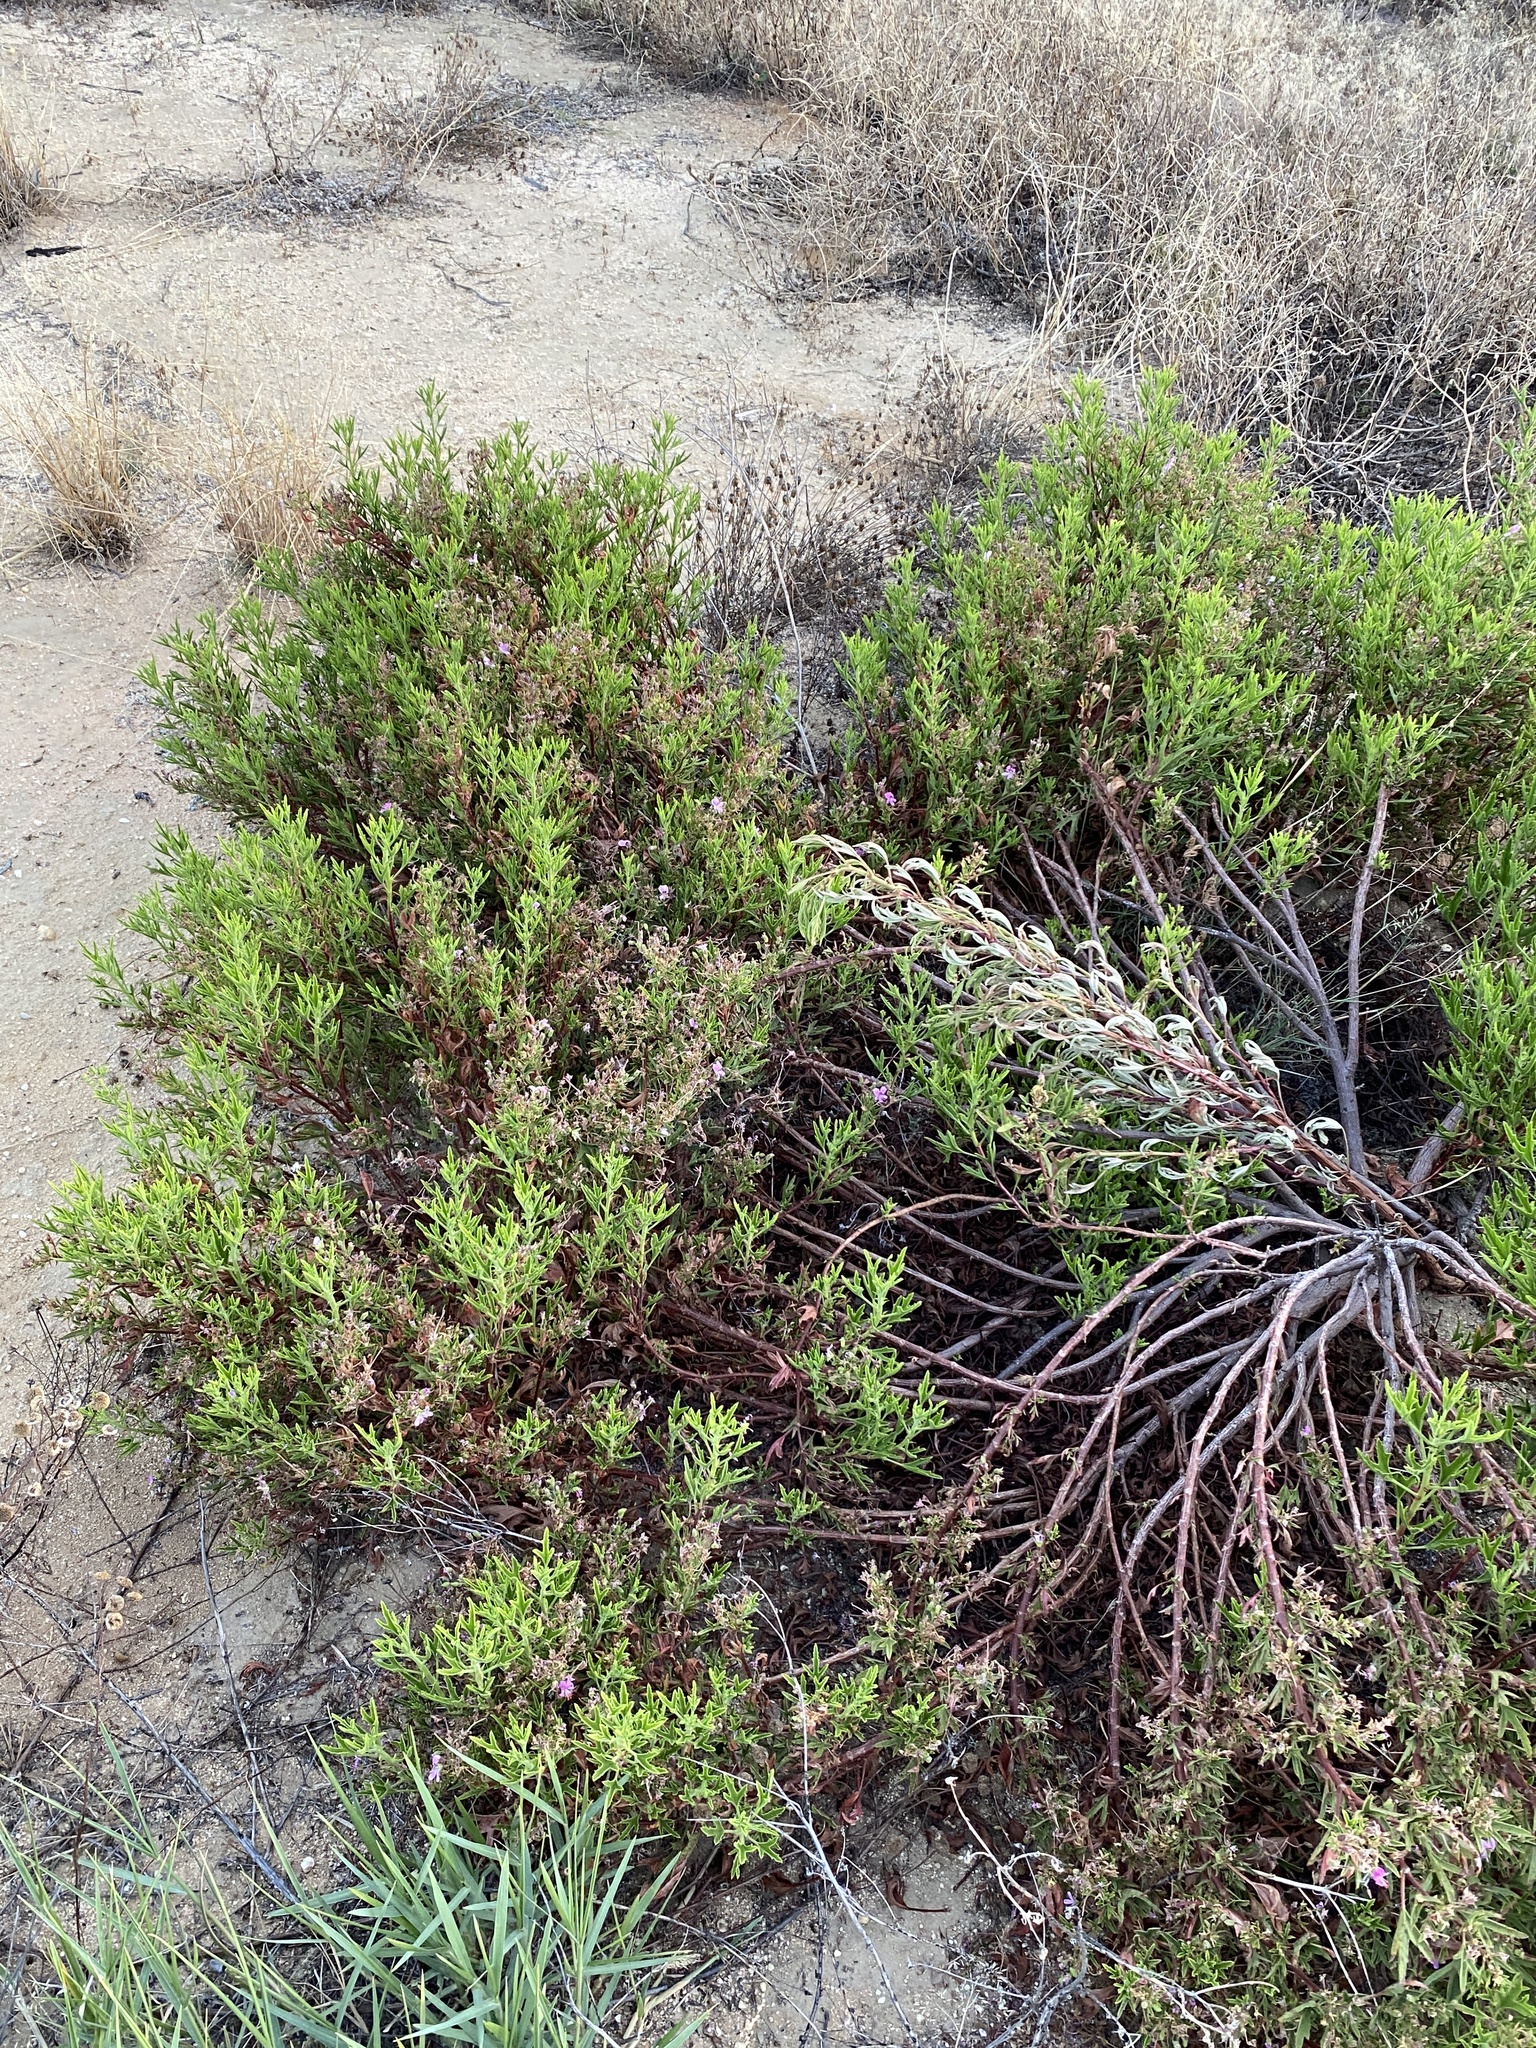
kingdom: Plantae
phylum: Tracheophyta
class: Magnoliopsida
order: Geraniales
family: Geraniaceae
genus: Pelargonium
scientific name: Pelargonium scabrum
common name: Apricot geranium
